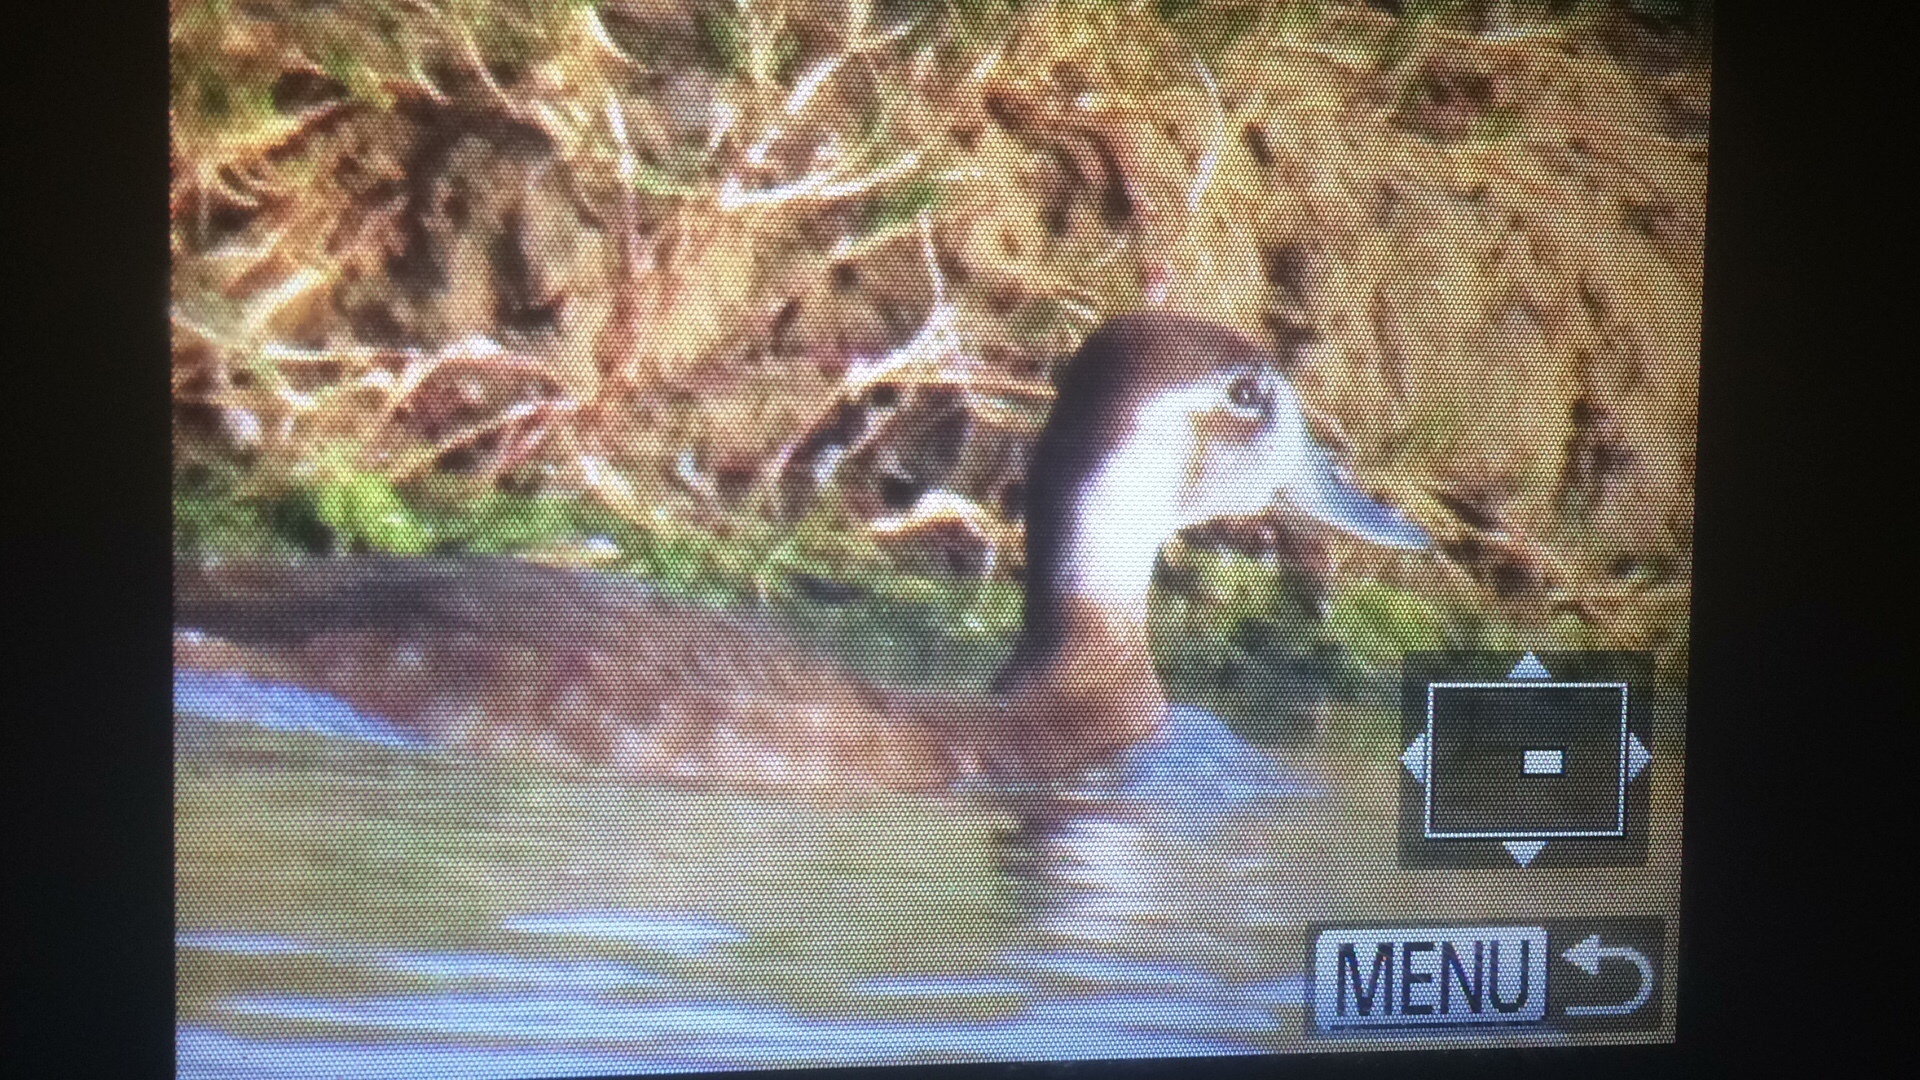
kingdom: Animalia
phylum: Chordata
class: Aves
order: Anseriformes
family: Anatidae
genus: Netta
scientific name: Netta erythrophthalma
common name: Southern pochard
